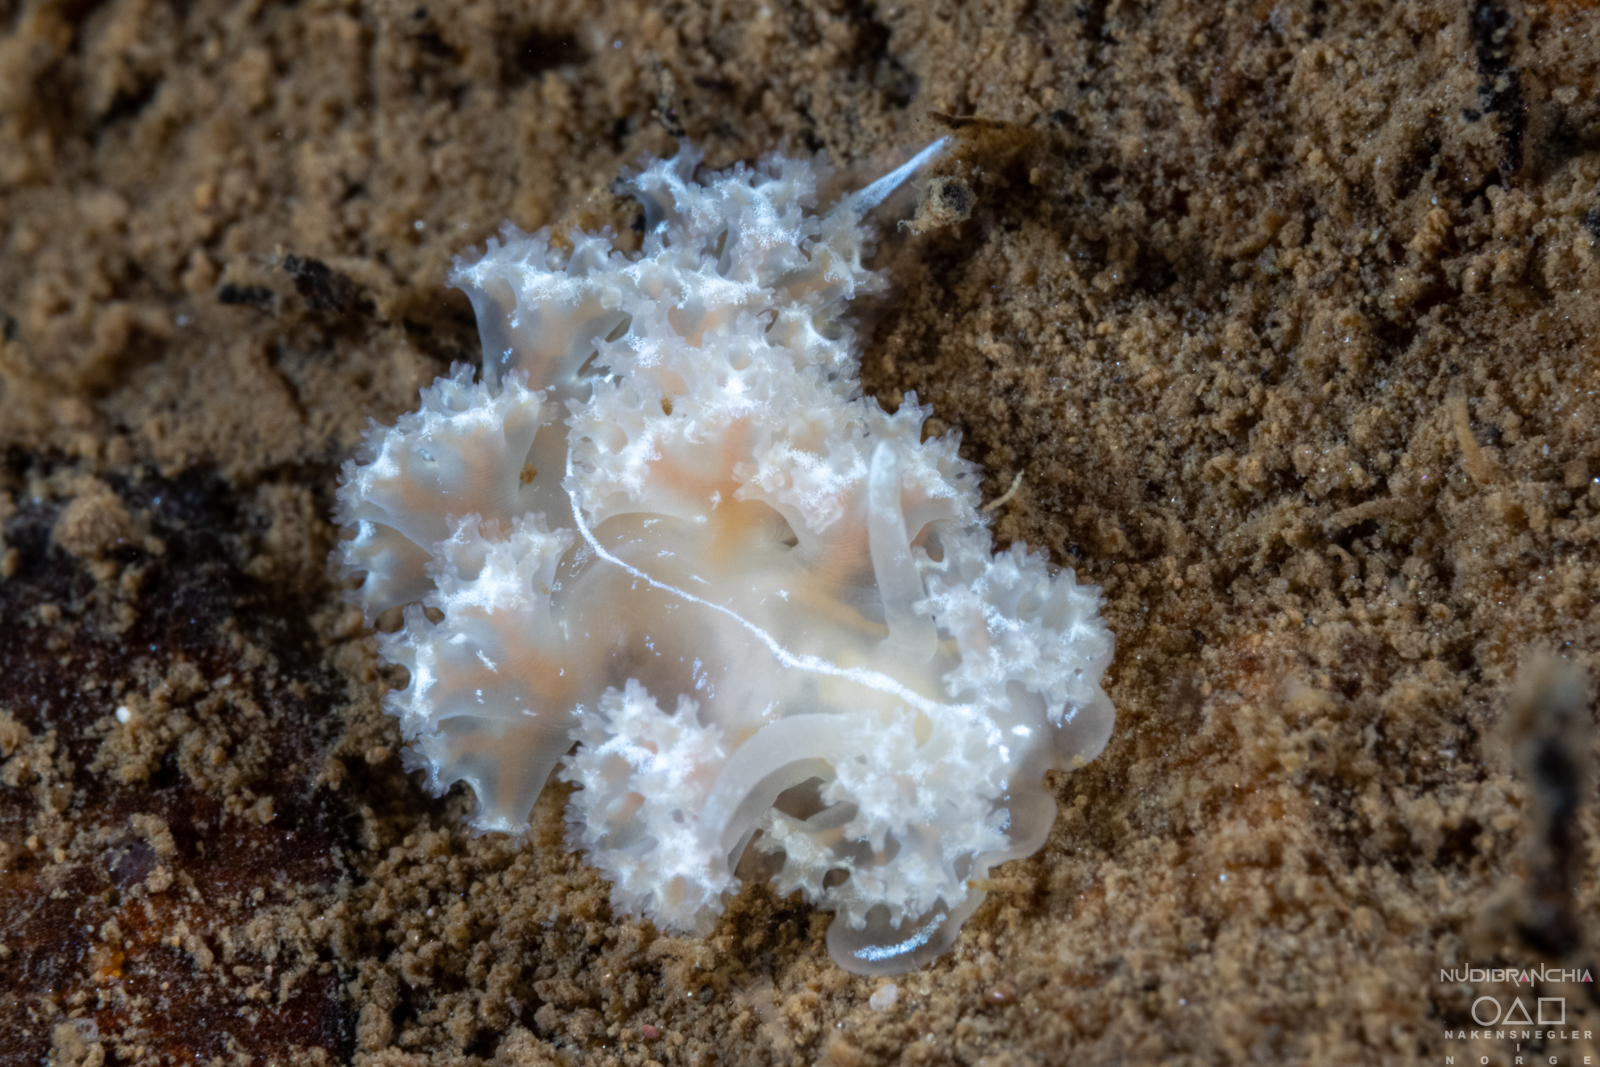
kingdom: Animalia
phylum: Mollusca
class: Gastropoda
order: Nudibranchia
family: Heroidae
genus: Hero
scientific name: Hero formosa
